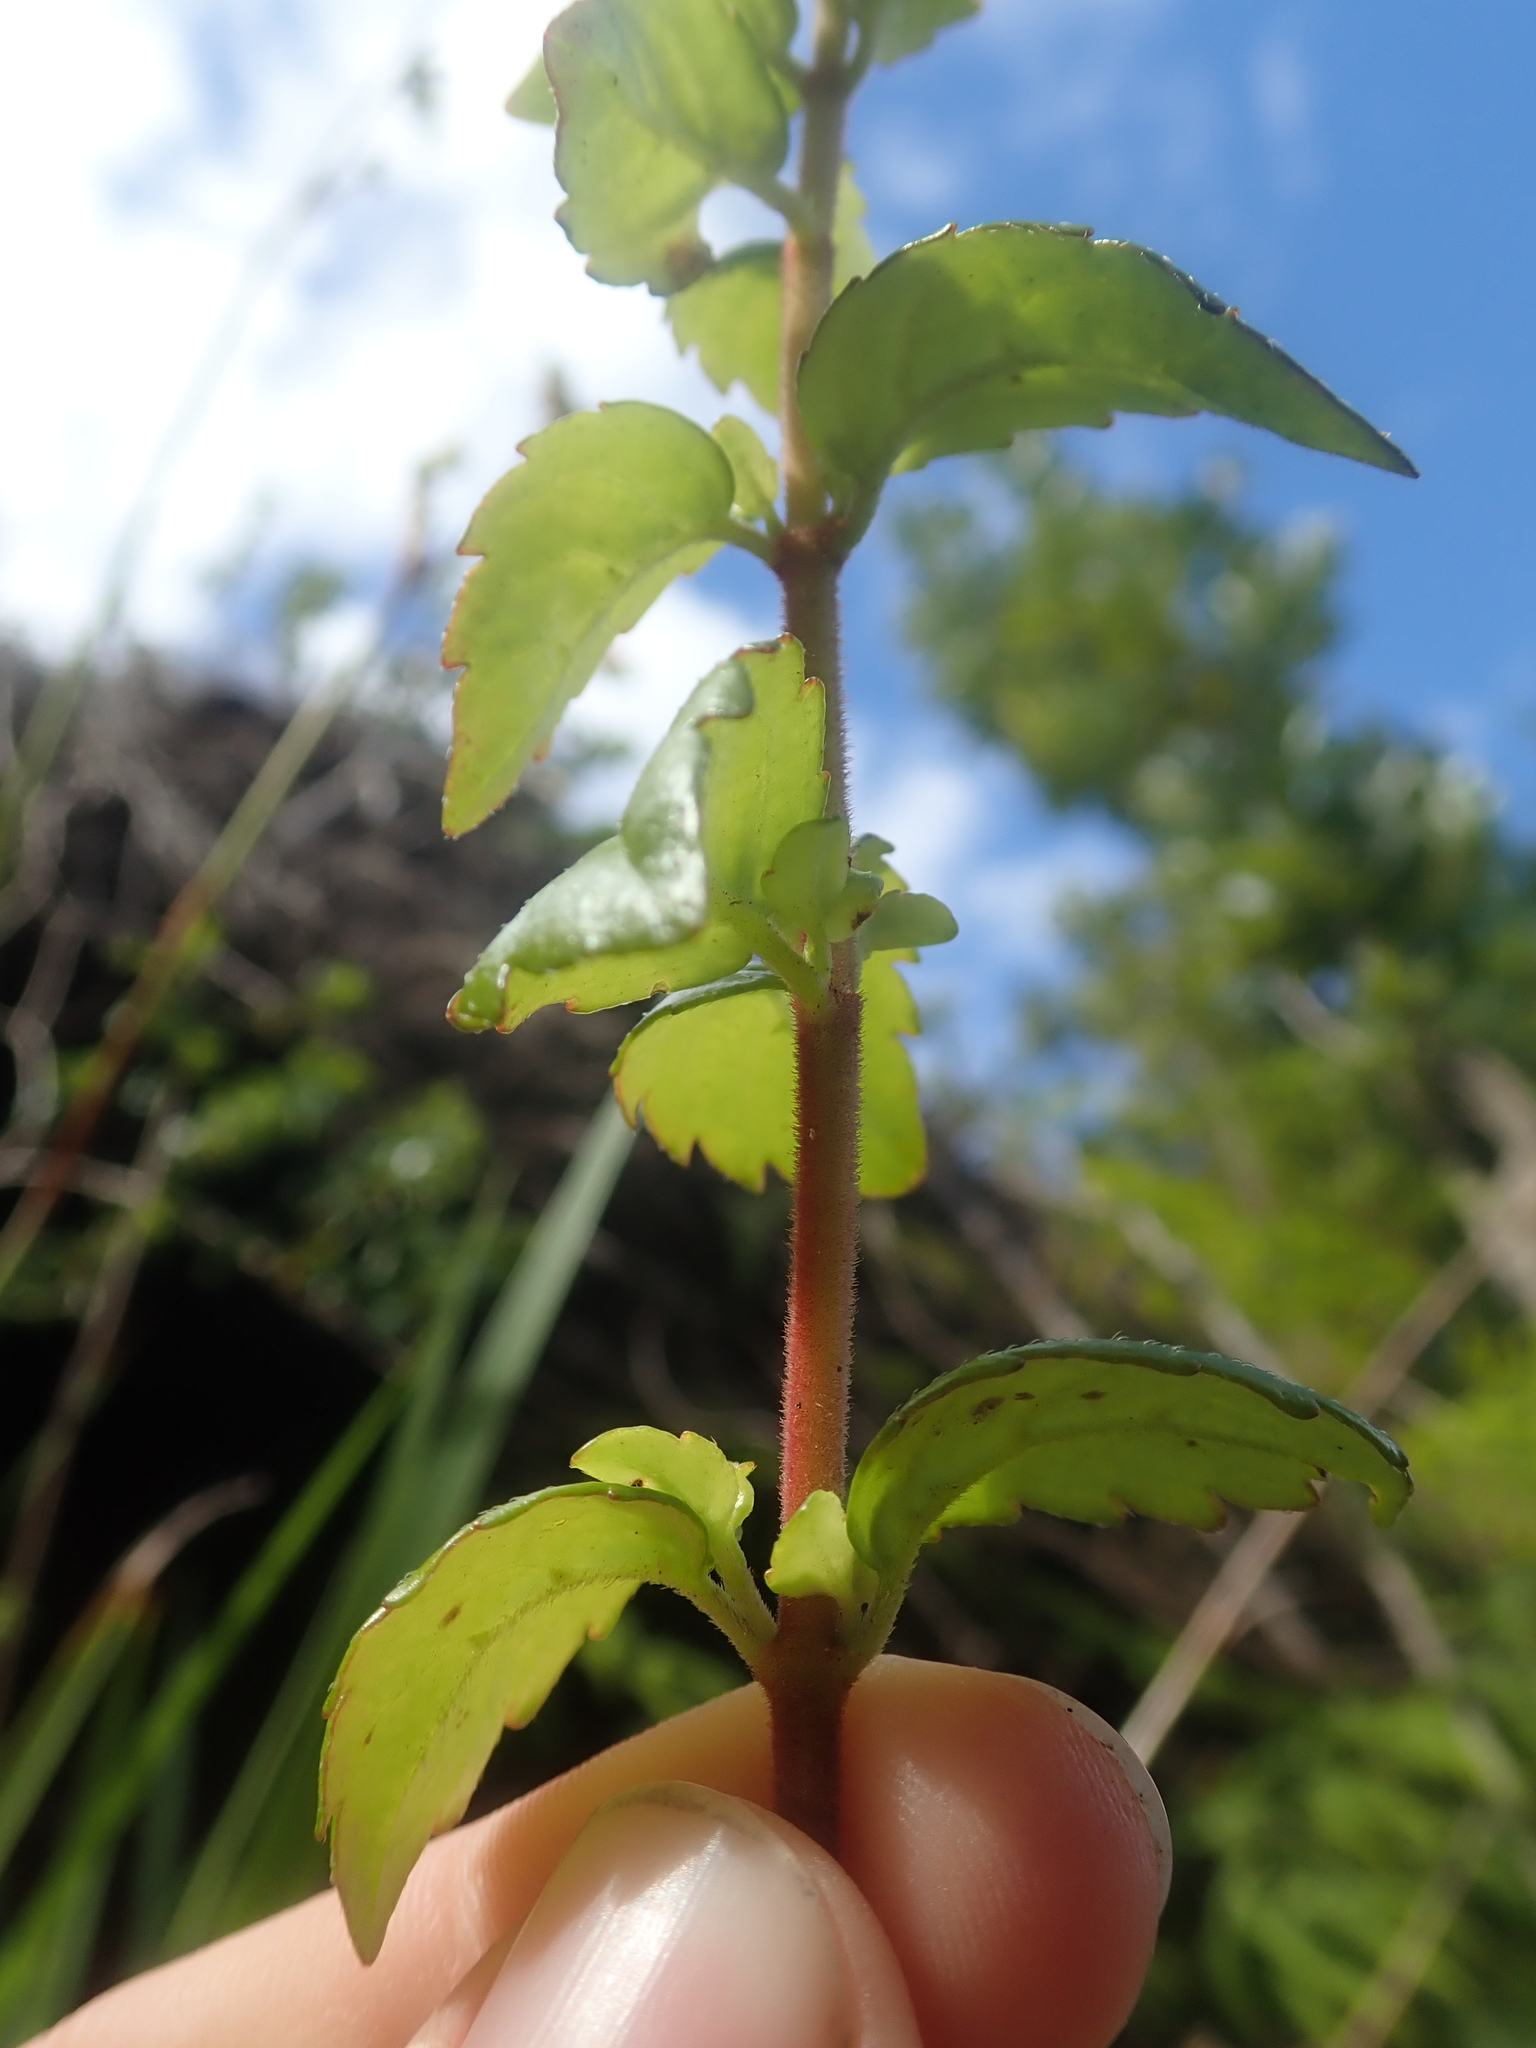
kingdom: Plantae
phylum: Tracheophyta
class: Magnoliopsida
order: Lamiales
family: Gesneriaceae
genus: Mitraria
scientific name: Mitraria coccinea
